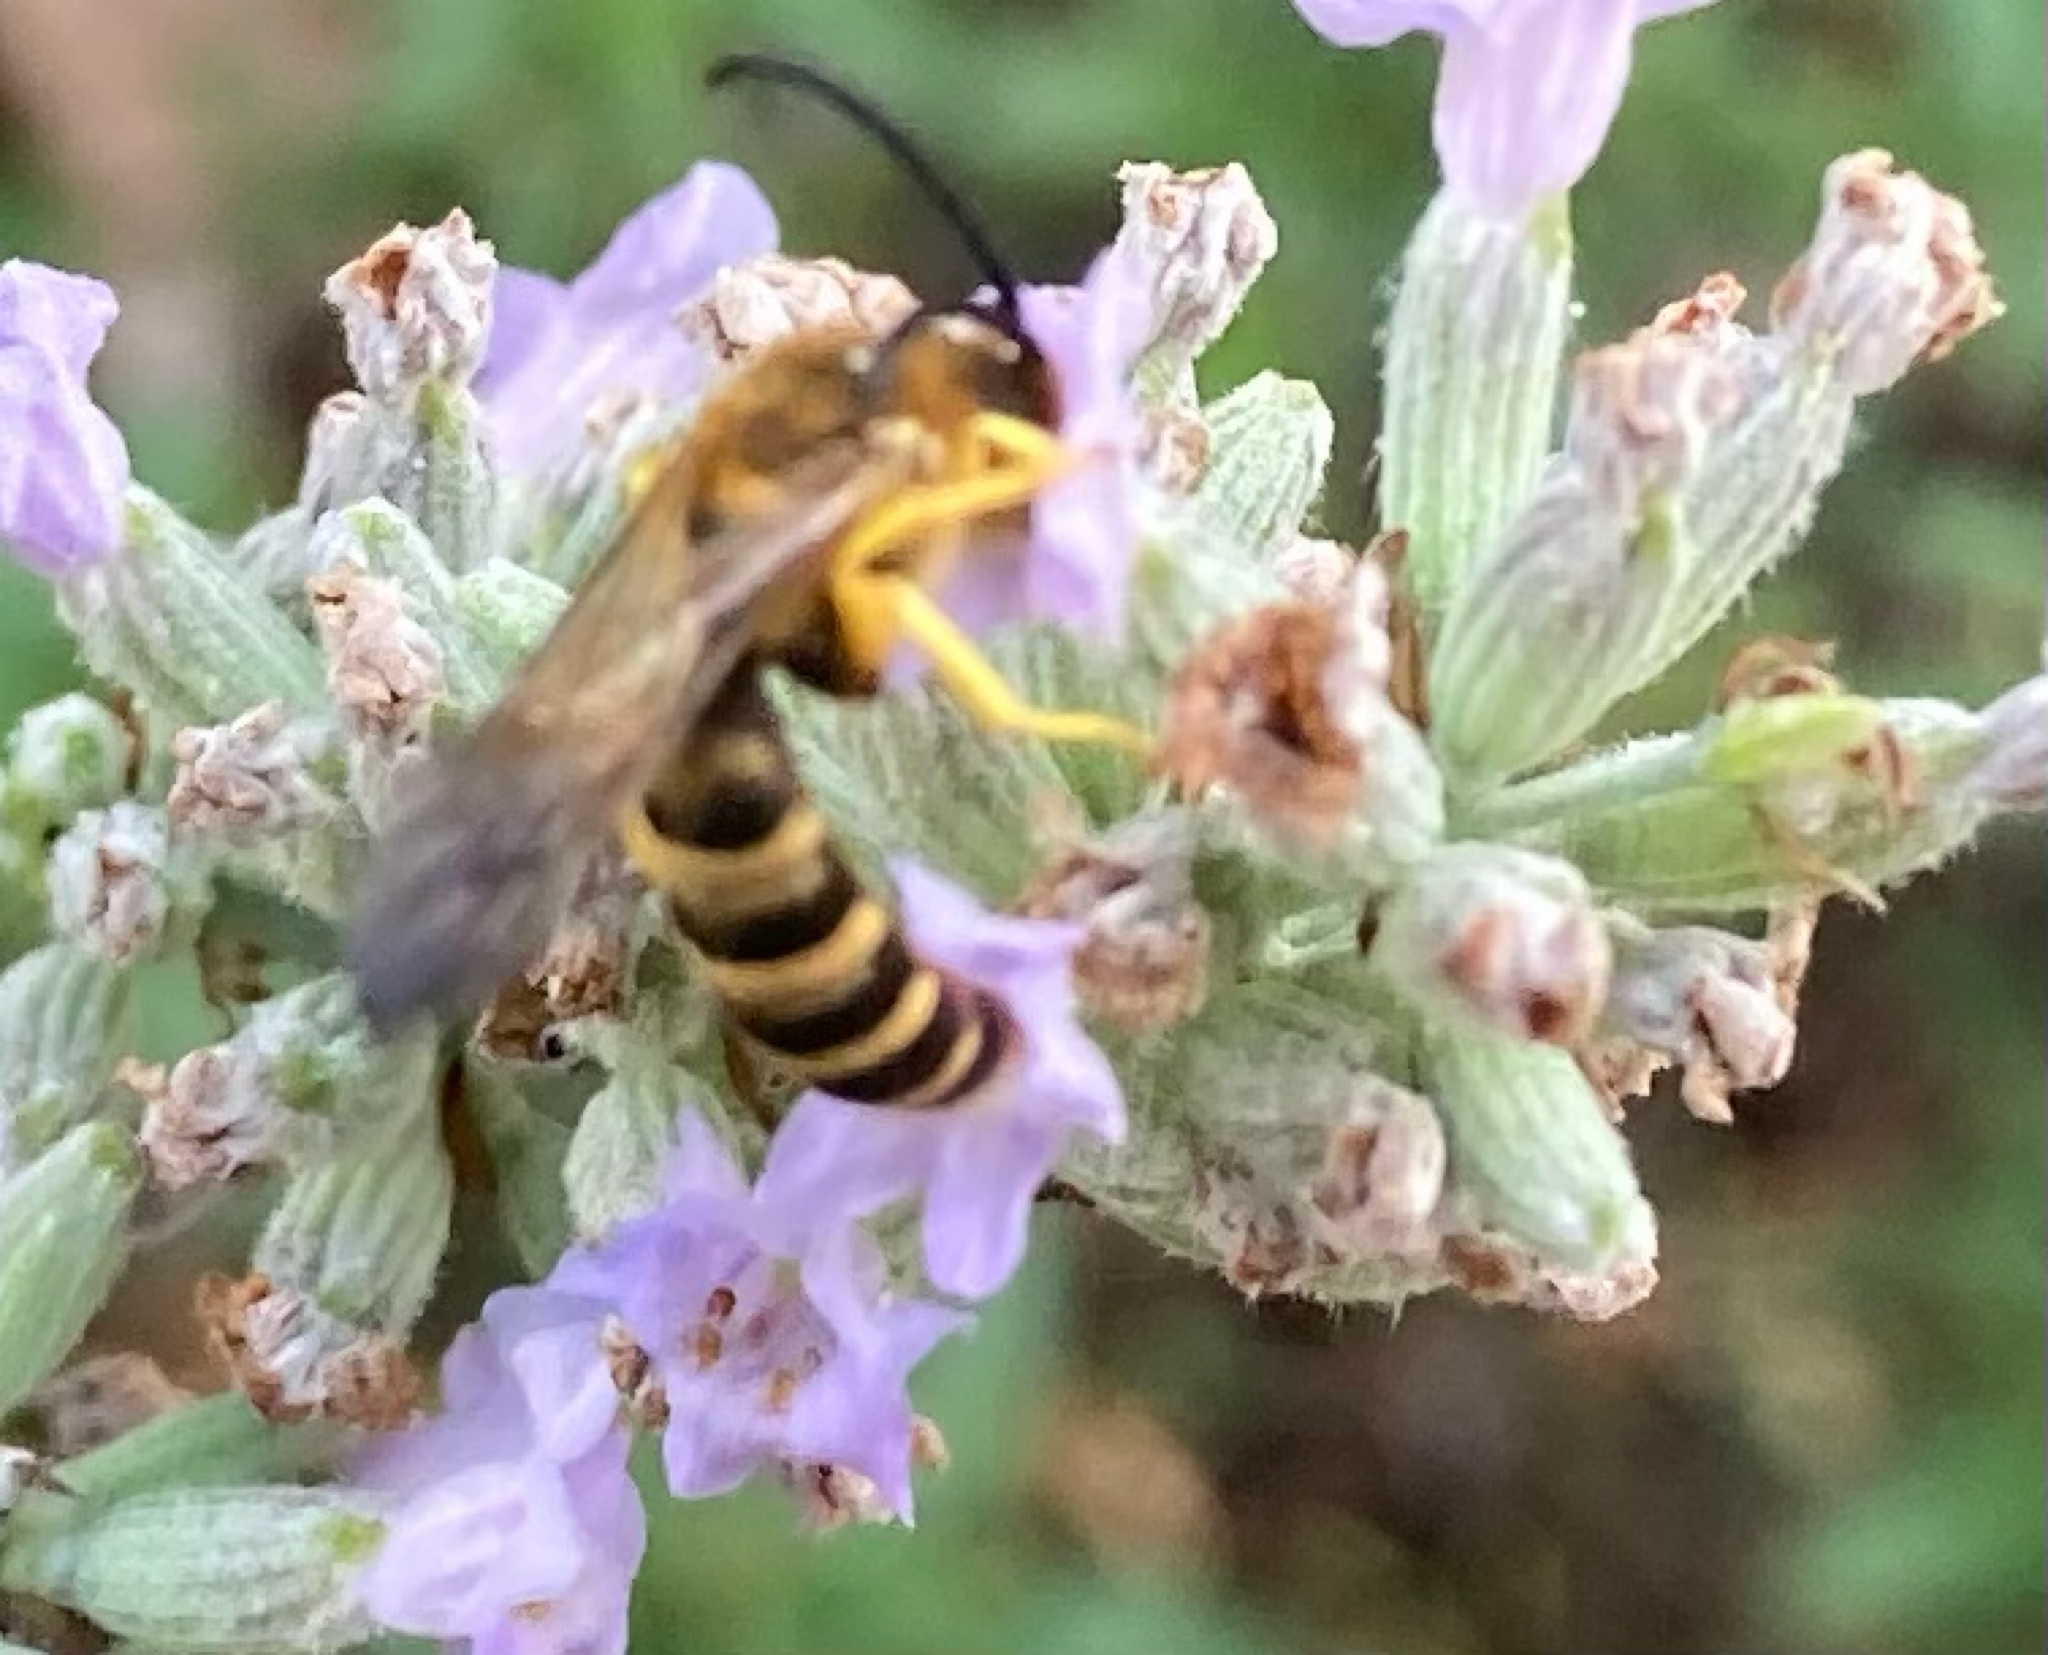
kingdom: Animalia
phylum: Arthropoda
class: Insecta
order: Hymenoptera
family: Halictidae
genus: Halictus
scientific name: Halictus scabiosae
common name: Great banded furrow bee
